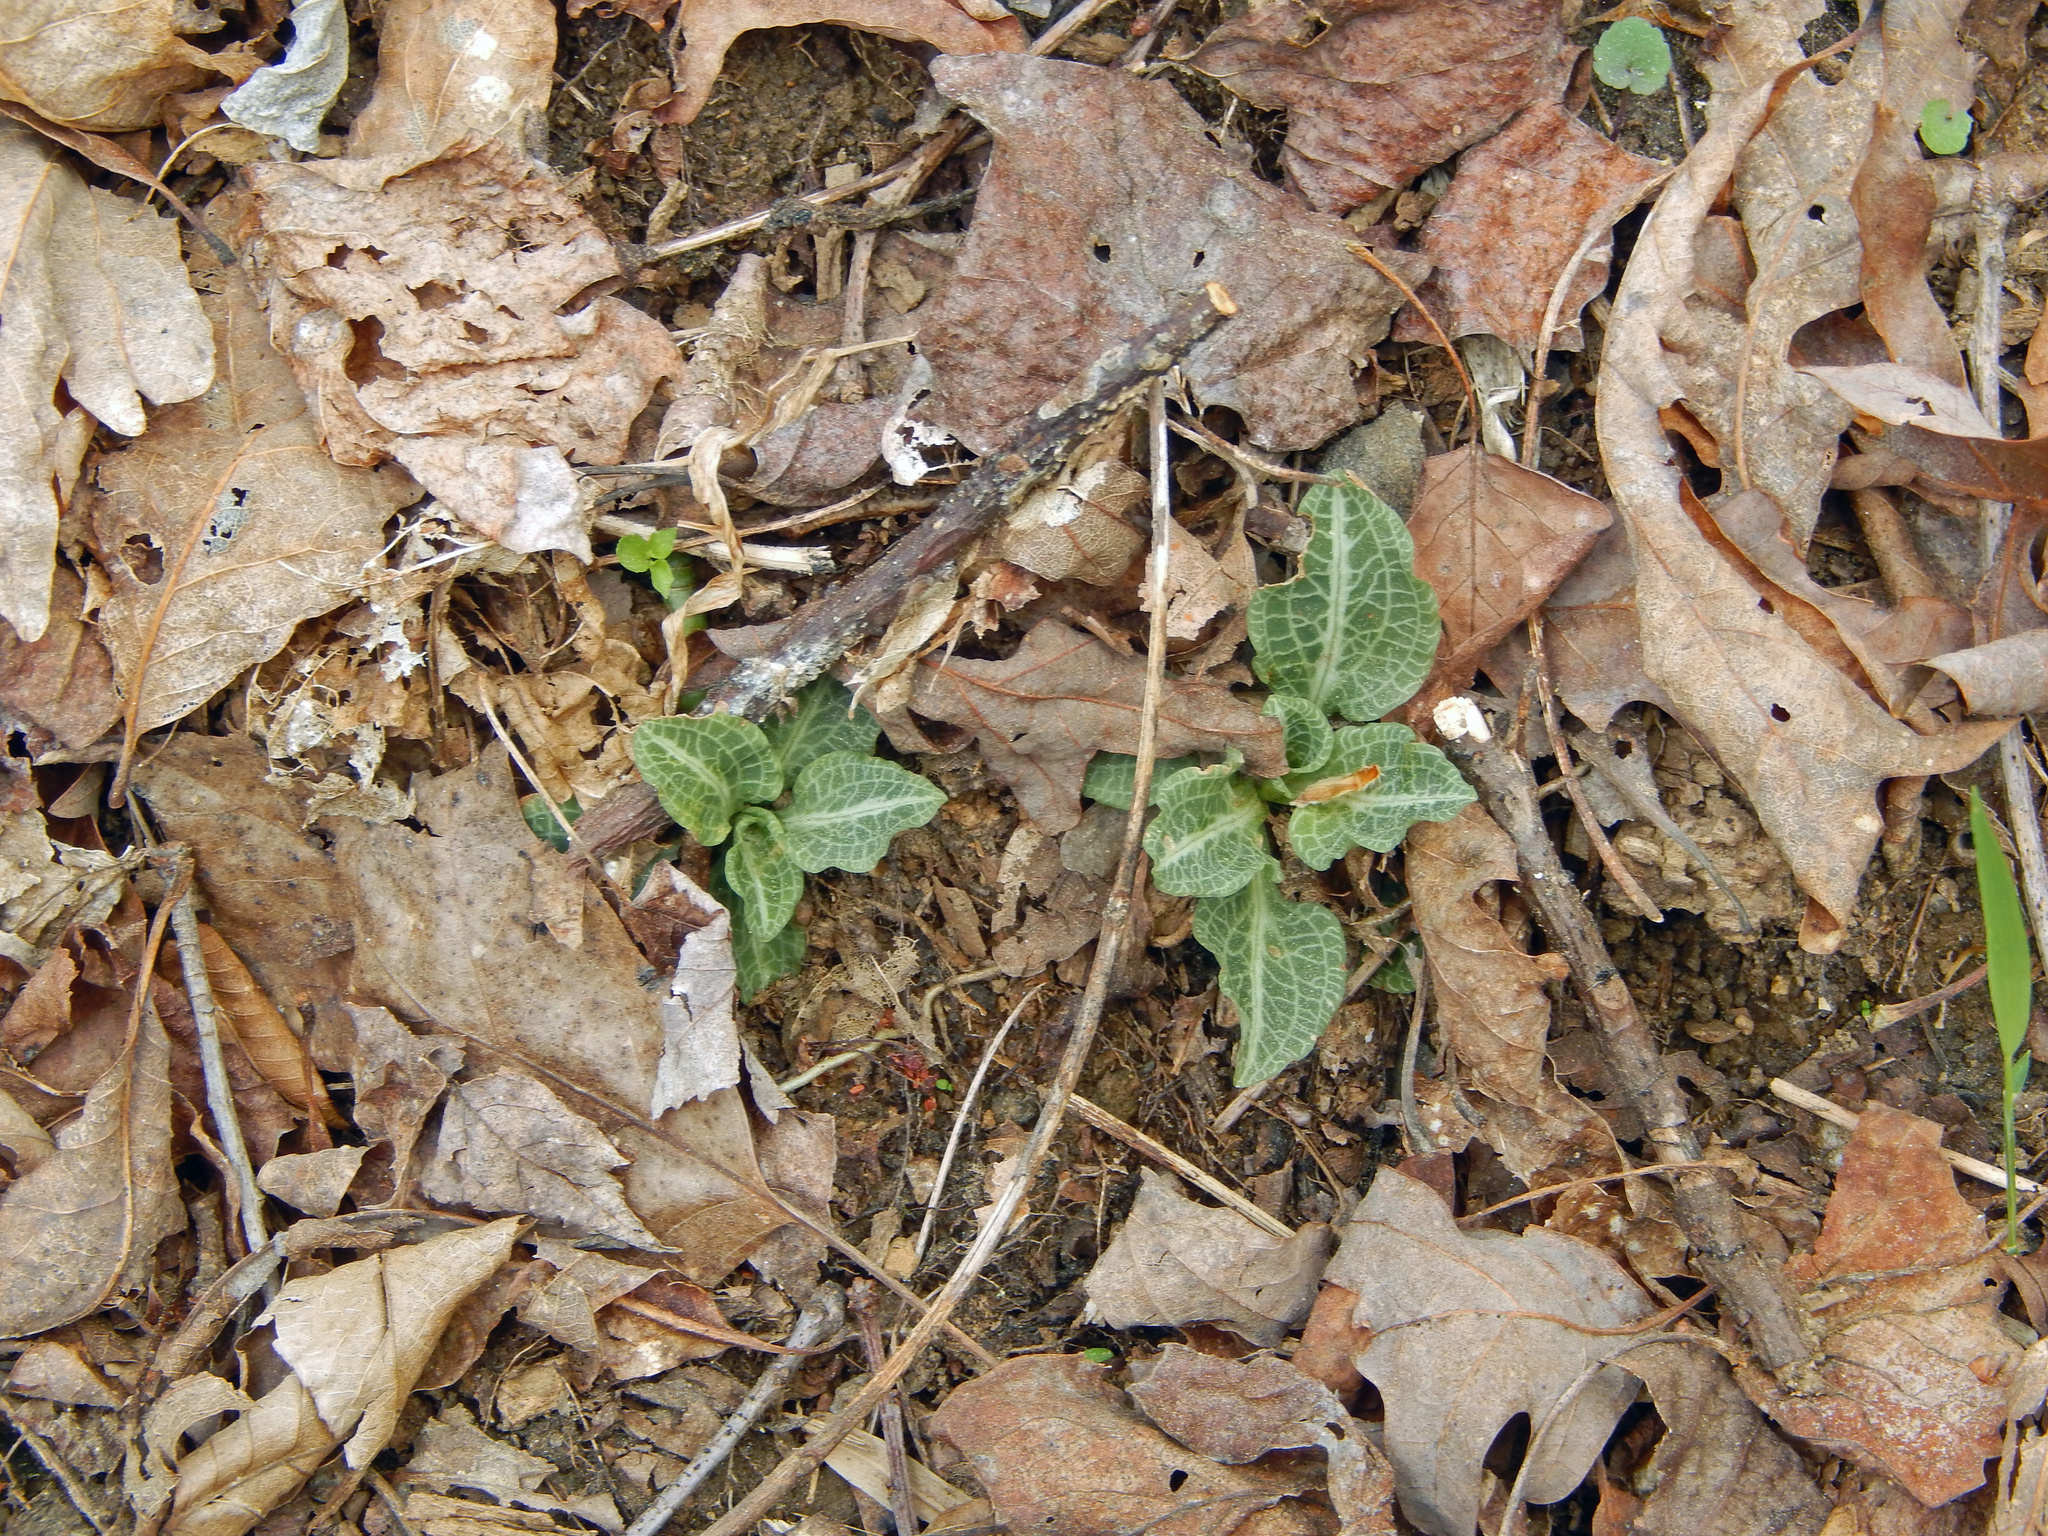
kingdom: Plantae
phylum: Tracheophyta
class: Liliopsida
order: Asparagales
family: Orchidaceae
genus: Goodyera
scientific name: Goodyera pubescens
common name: Downy rattlesnake-plantain
